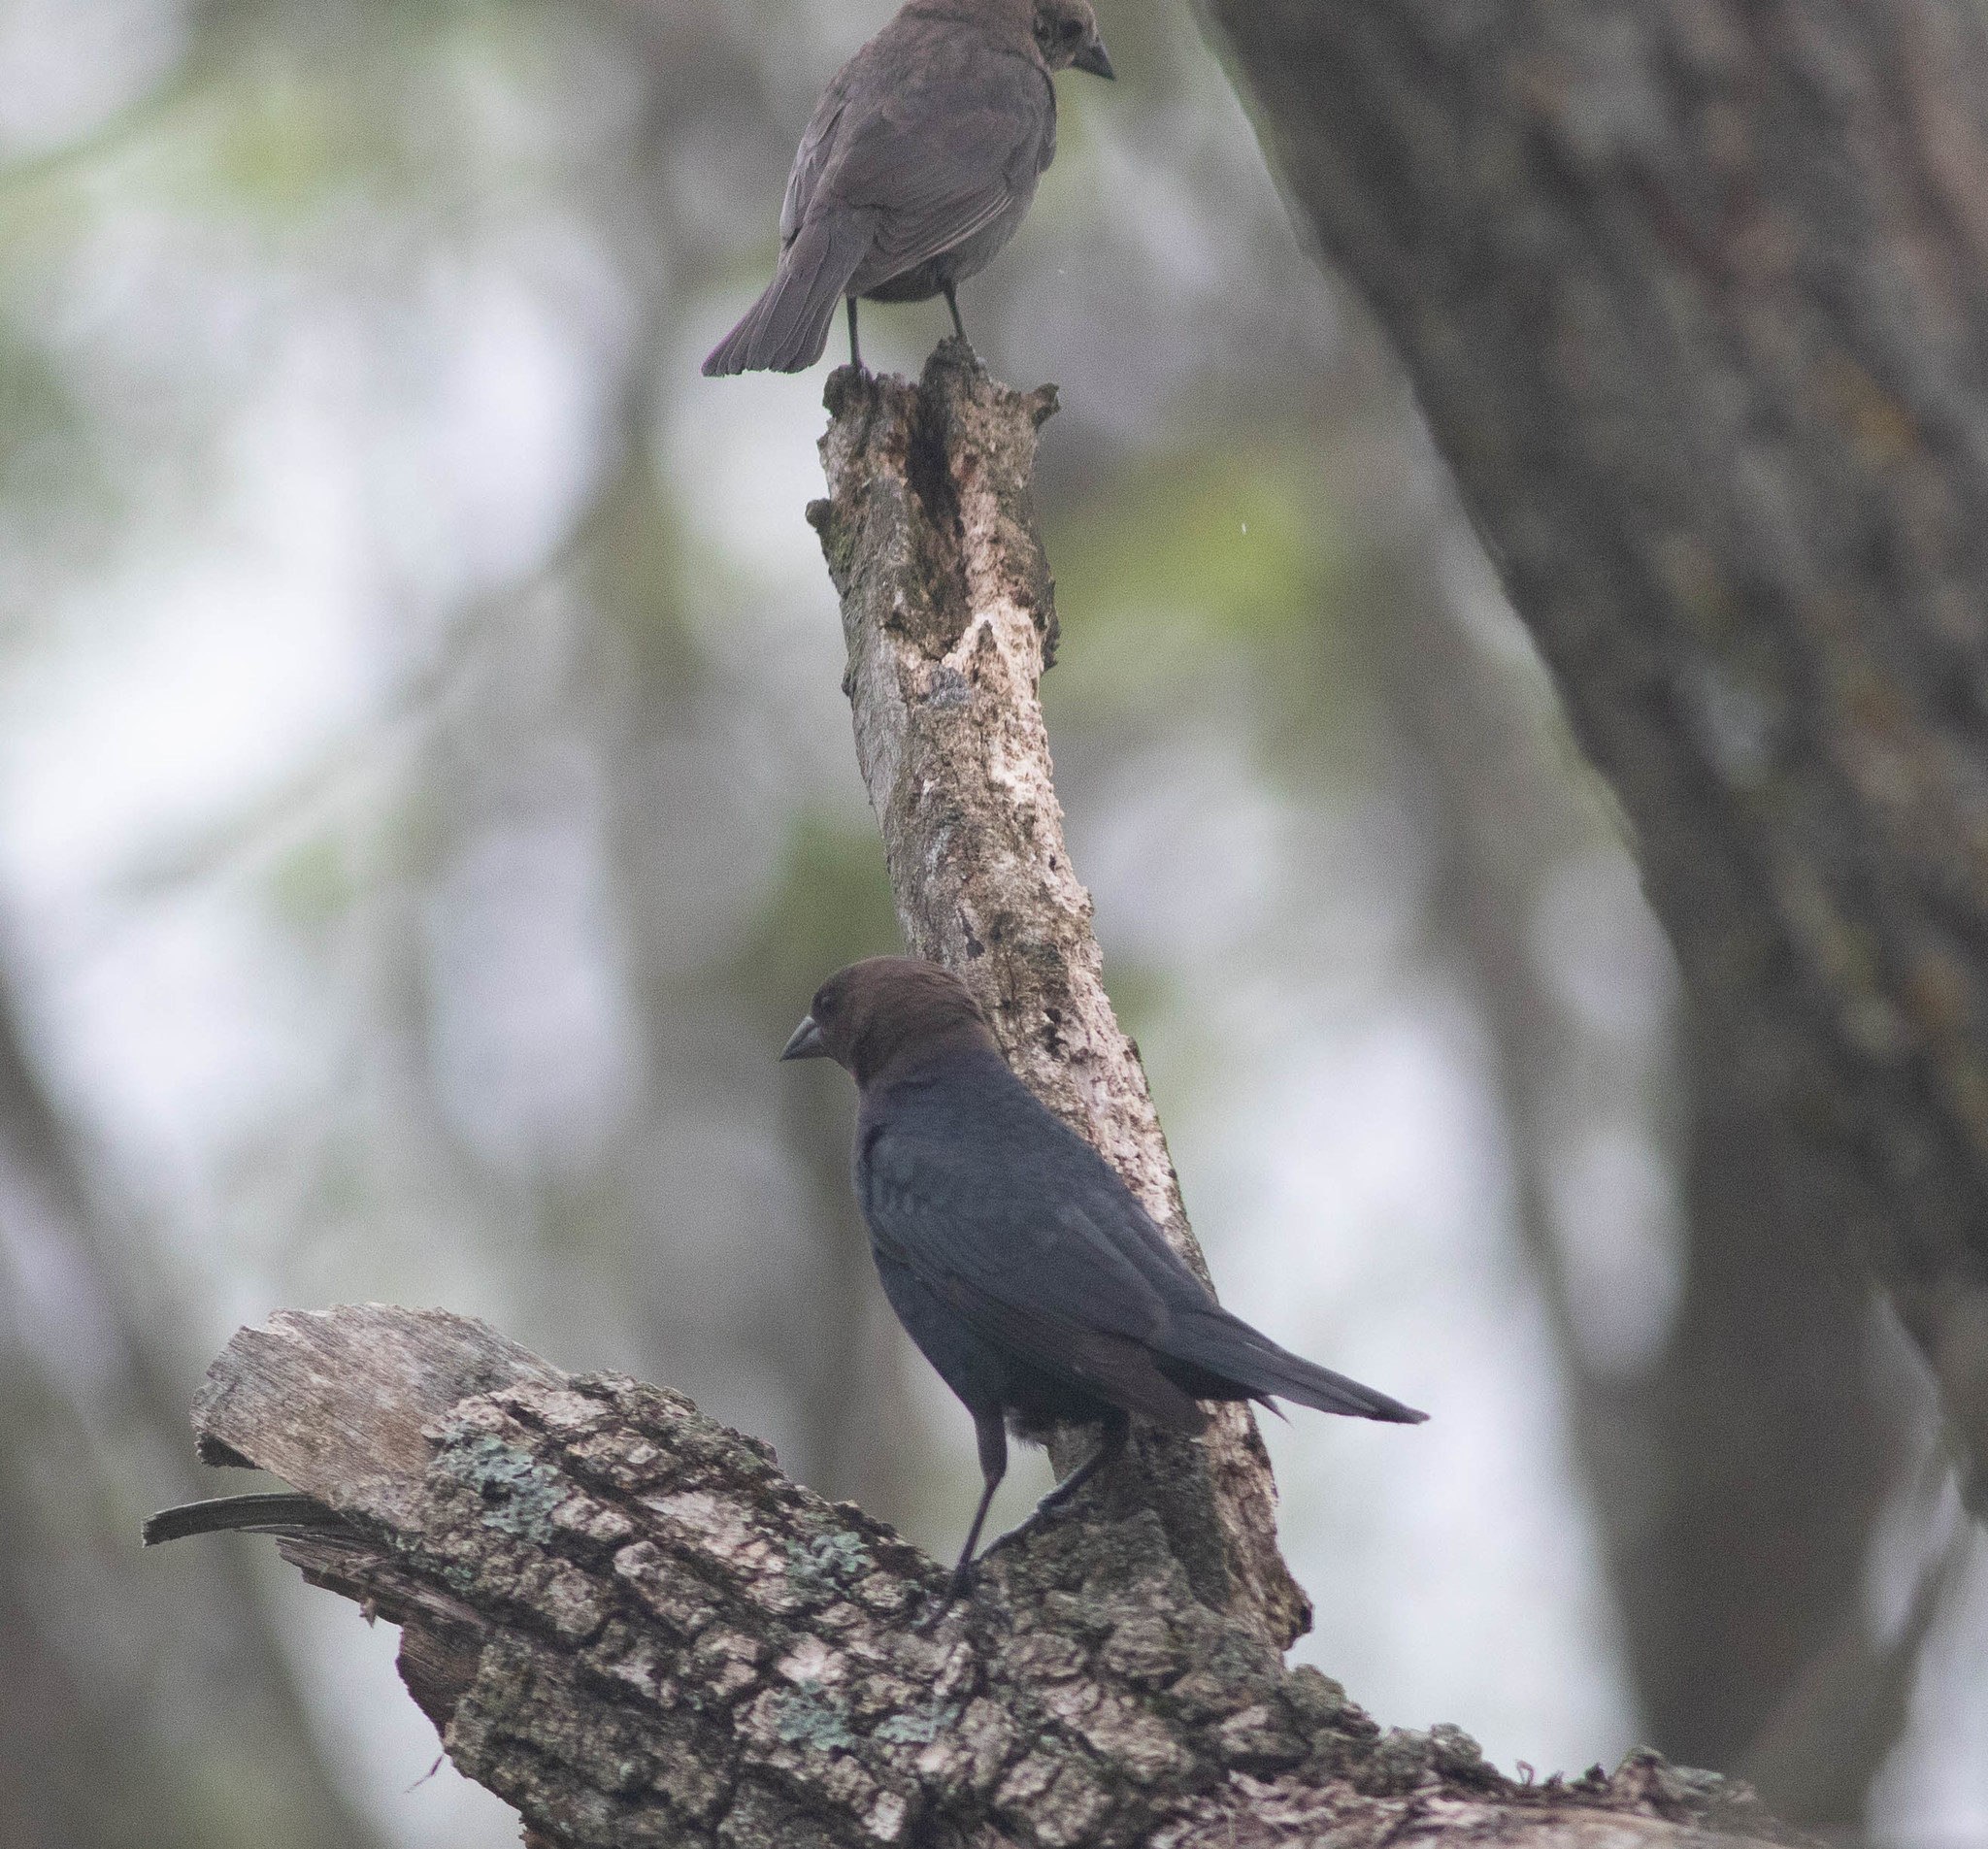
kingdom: Animalia
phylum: Chordata
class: Aves
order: Passeriformes
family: Icteridae
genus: Molothrus
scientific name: Molothrus ater
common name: Brown-headed cowbird
